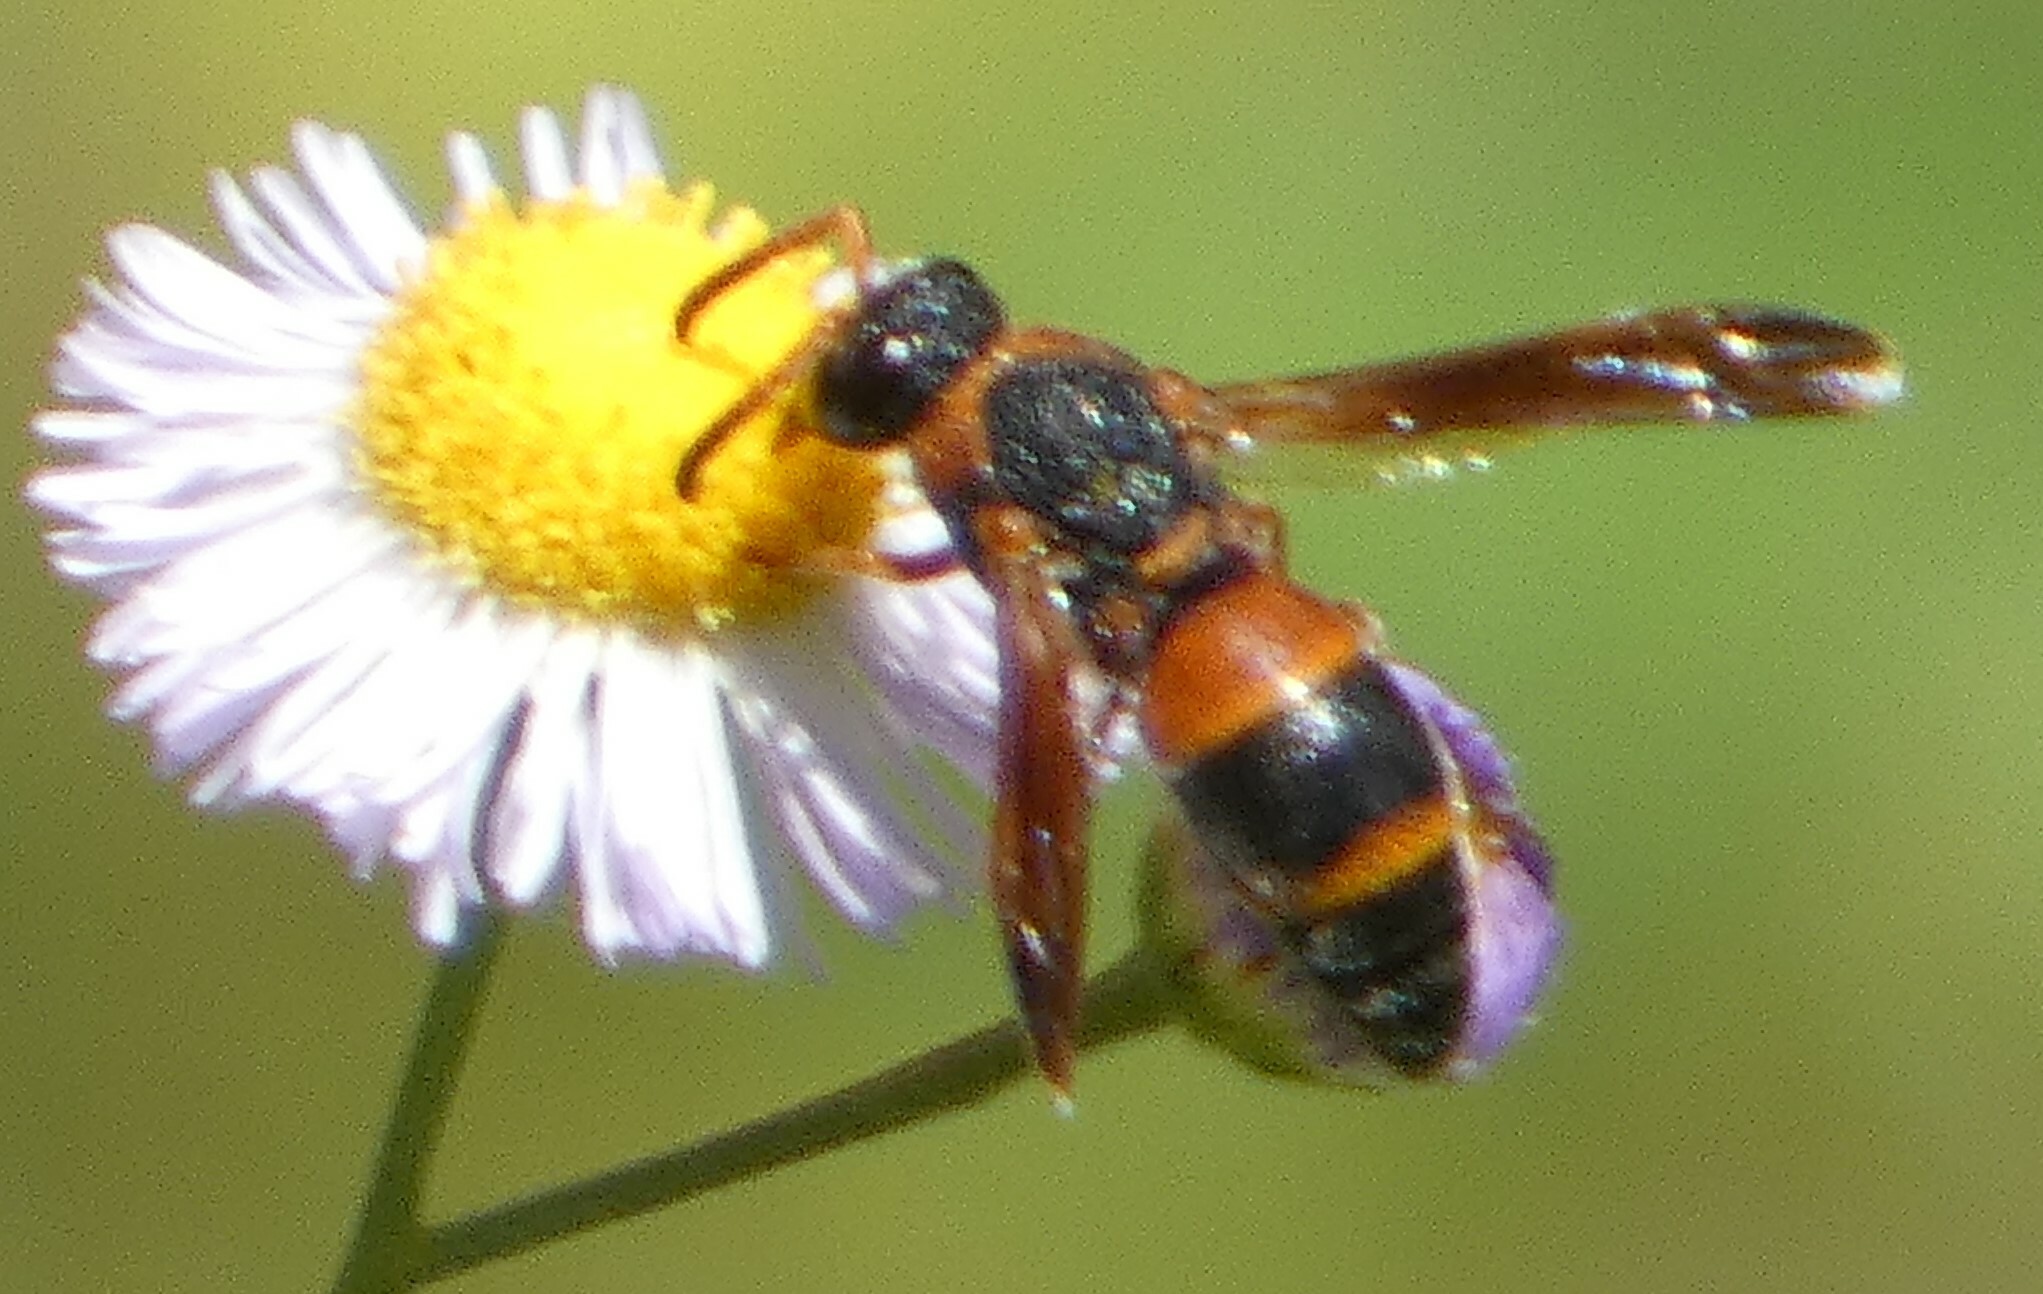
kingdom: Animalia
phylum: Arthropoda
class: Insecta
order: Hymenoptera
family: Eumenidae
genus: Pachodynerus
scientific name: Pachodynerus erynnis
